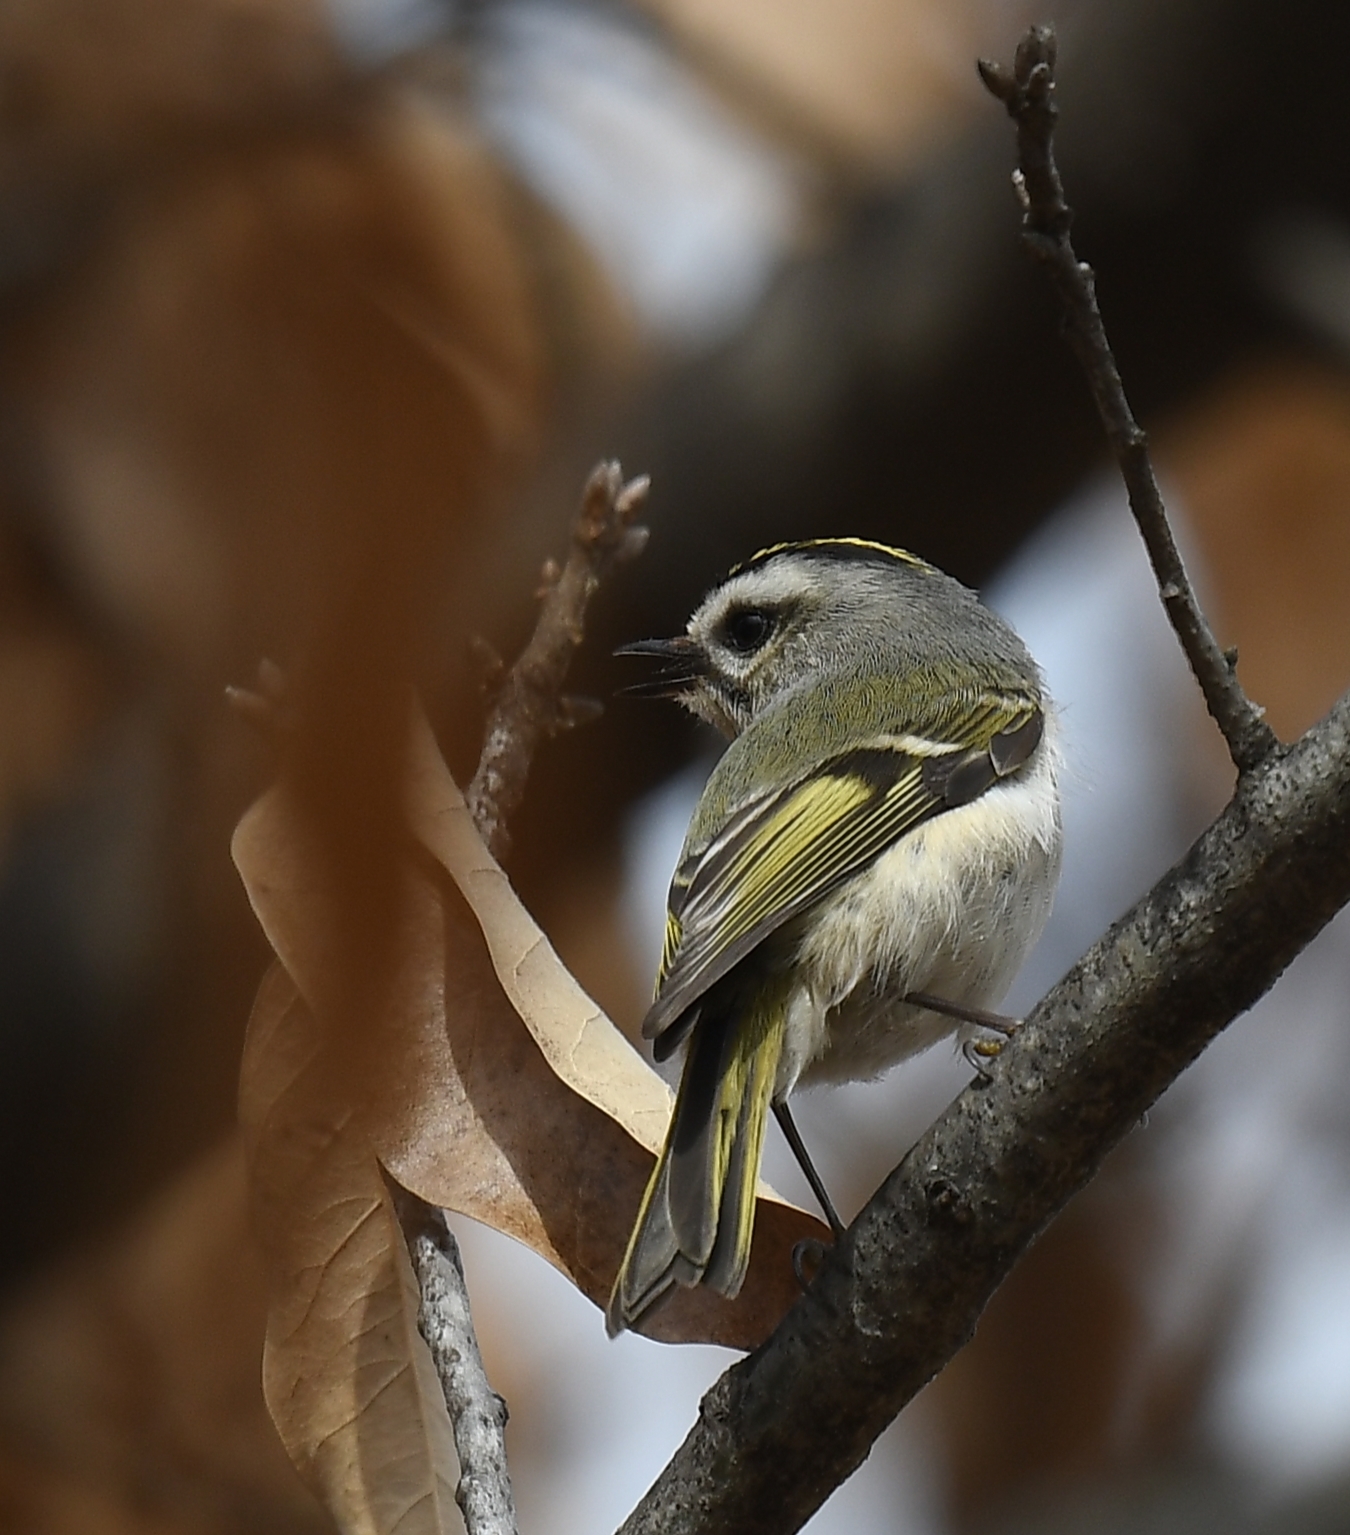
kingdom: Animalia
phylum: Chordata
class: Aves
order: Passeriformes
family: Regulidae
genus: Regulus
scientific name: Regulus satrapa
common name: Golden-crowned kinglet
